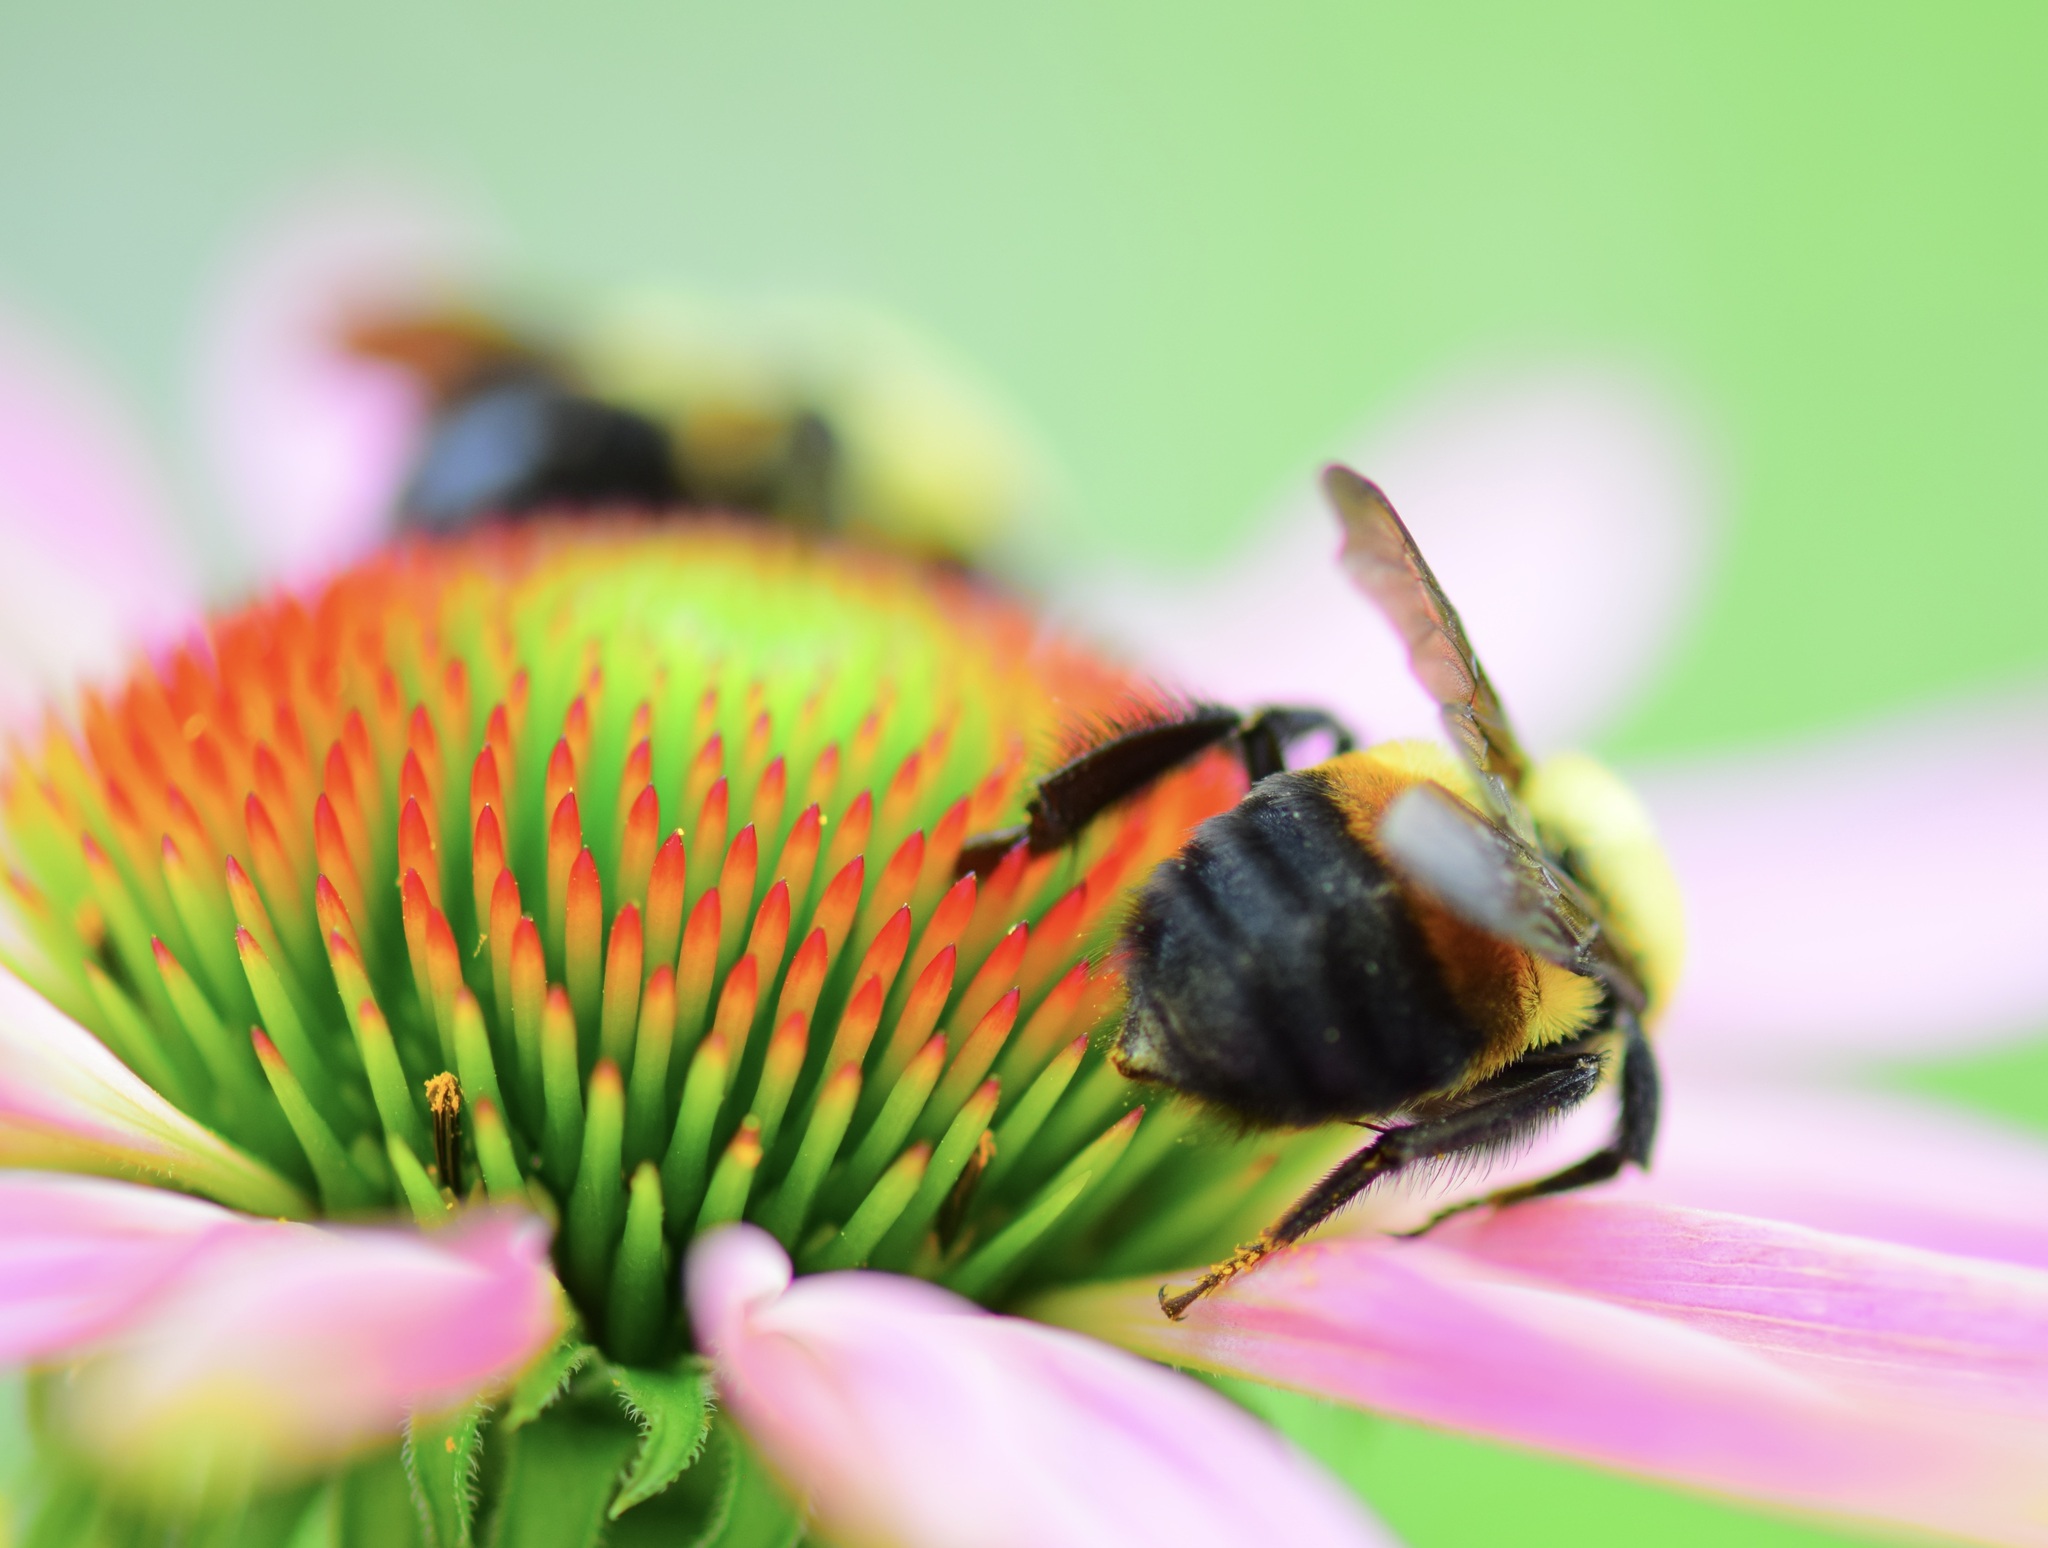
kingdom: Animalia
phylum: Arthropoda
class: Insecta
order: Hymenoptera
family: Apidae
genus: Bombus
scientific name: Bombus griseocollis
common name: Brown-belted bumble bee
